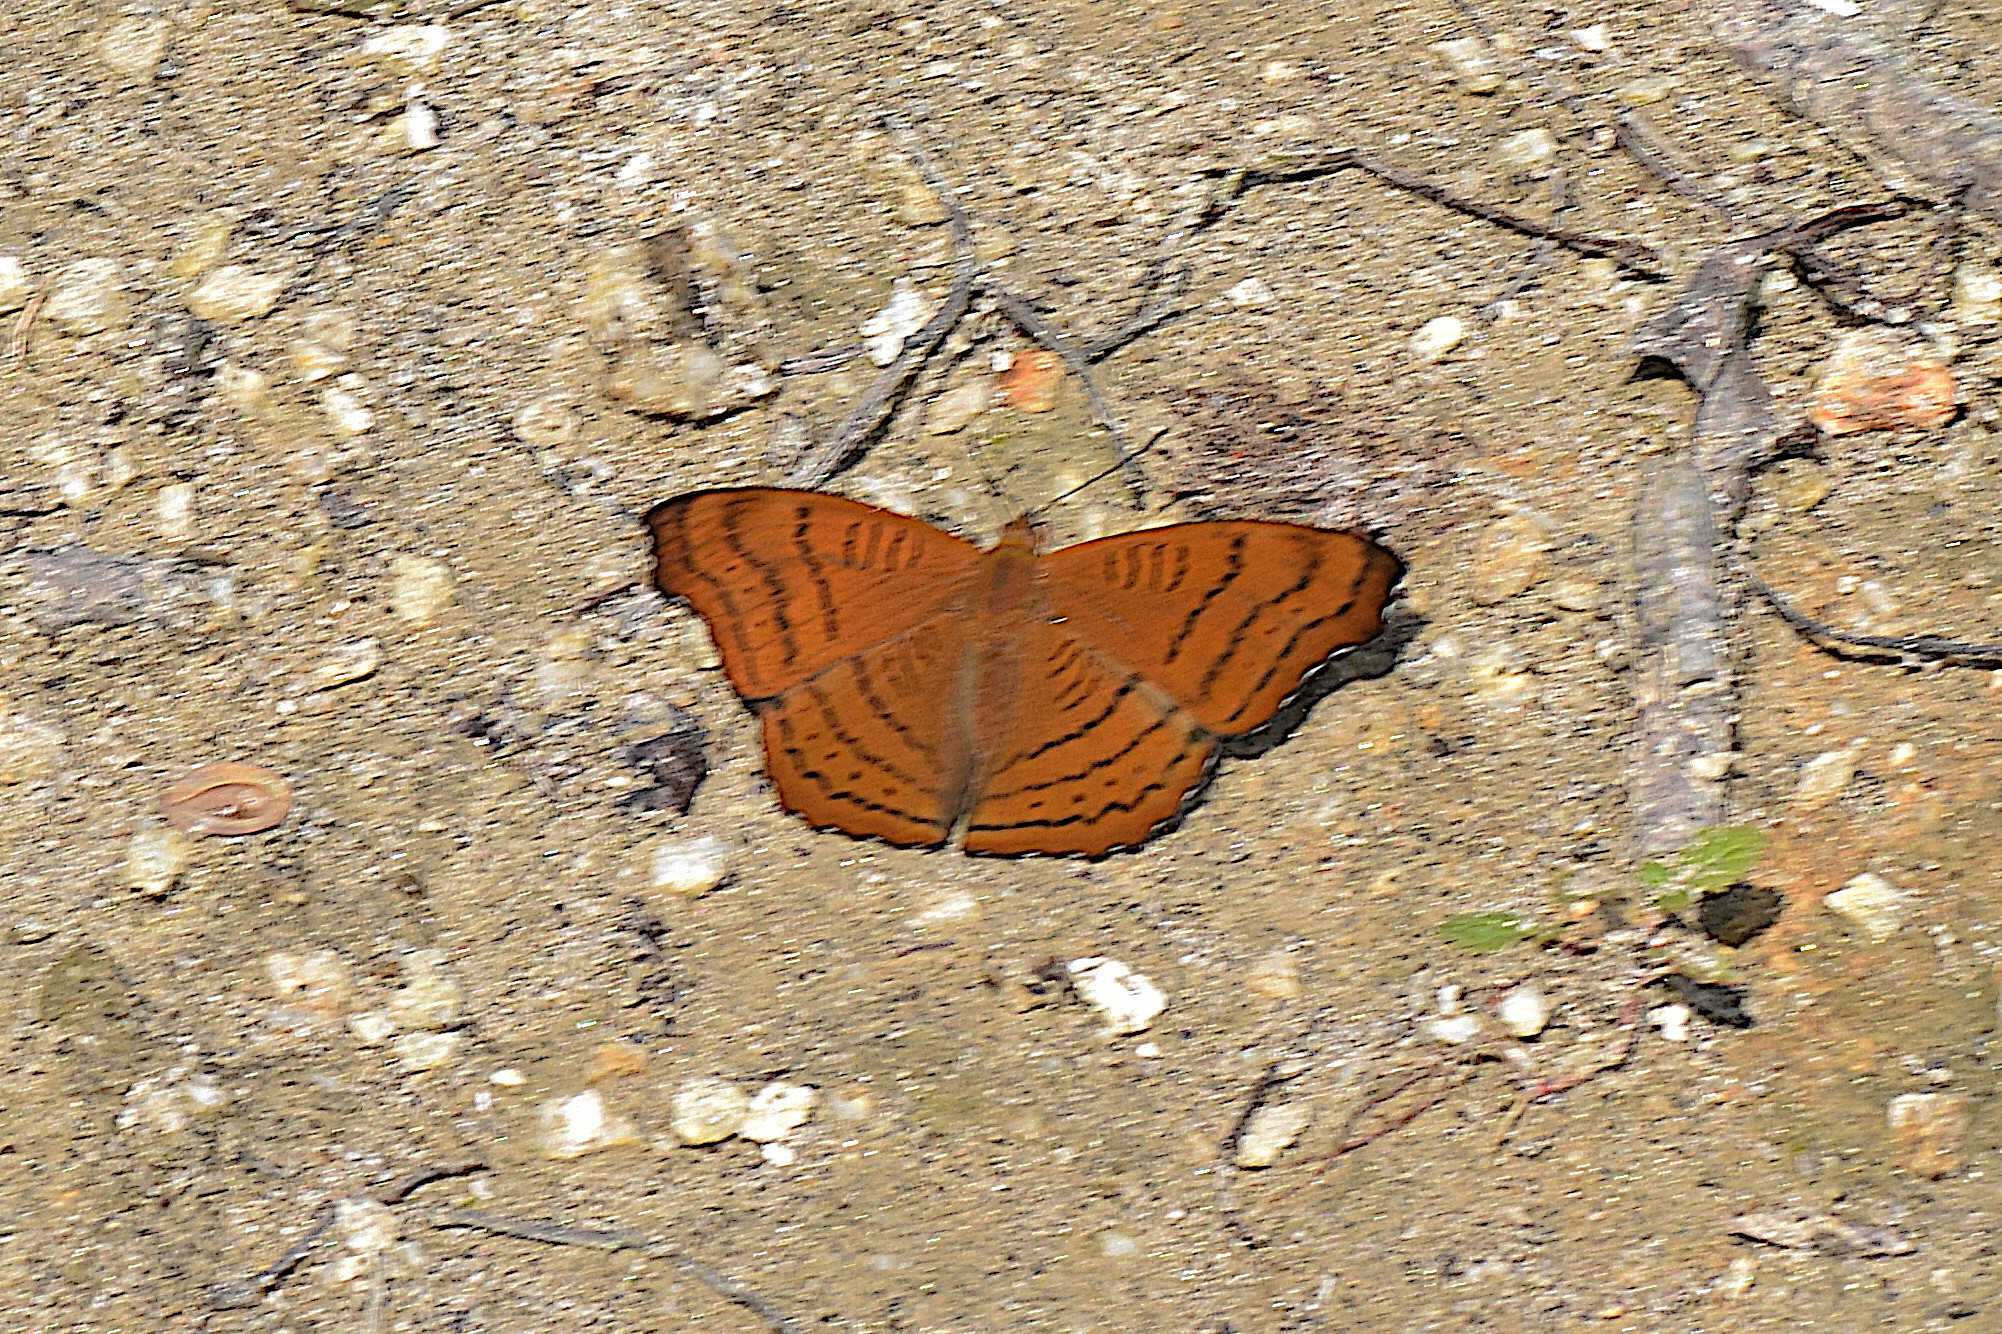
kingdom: Animalia
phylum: Arthropoda
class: Insecta
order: Lepidoptera
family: Nymphalidae
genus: Pseudergolis
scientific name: Pseudergolis wedah
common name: Tabby
